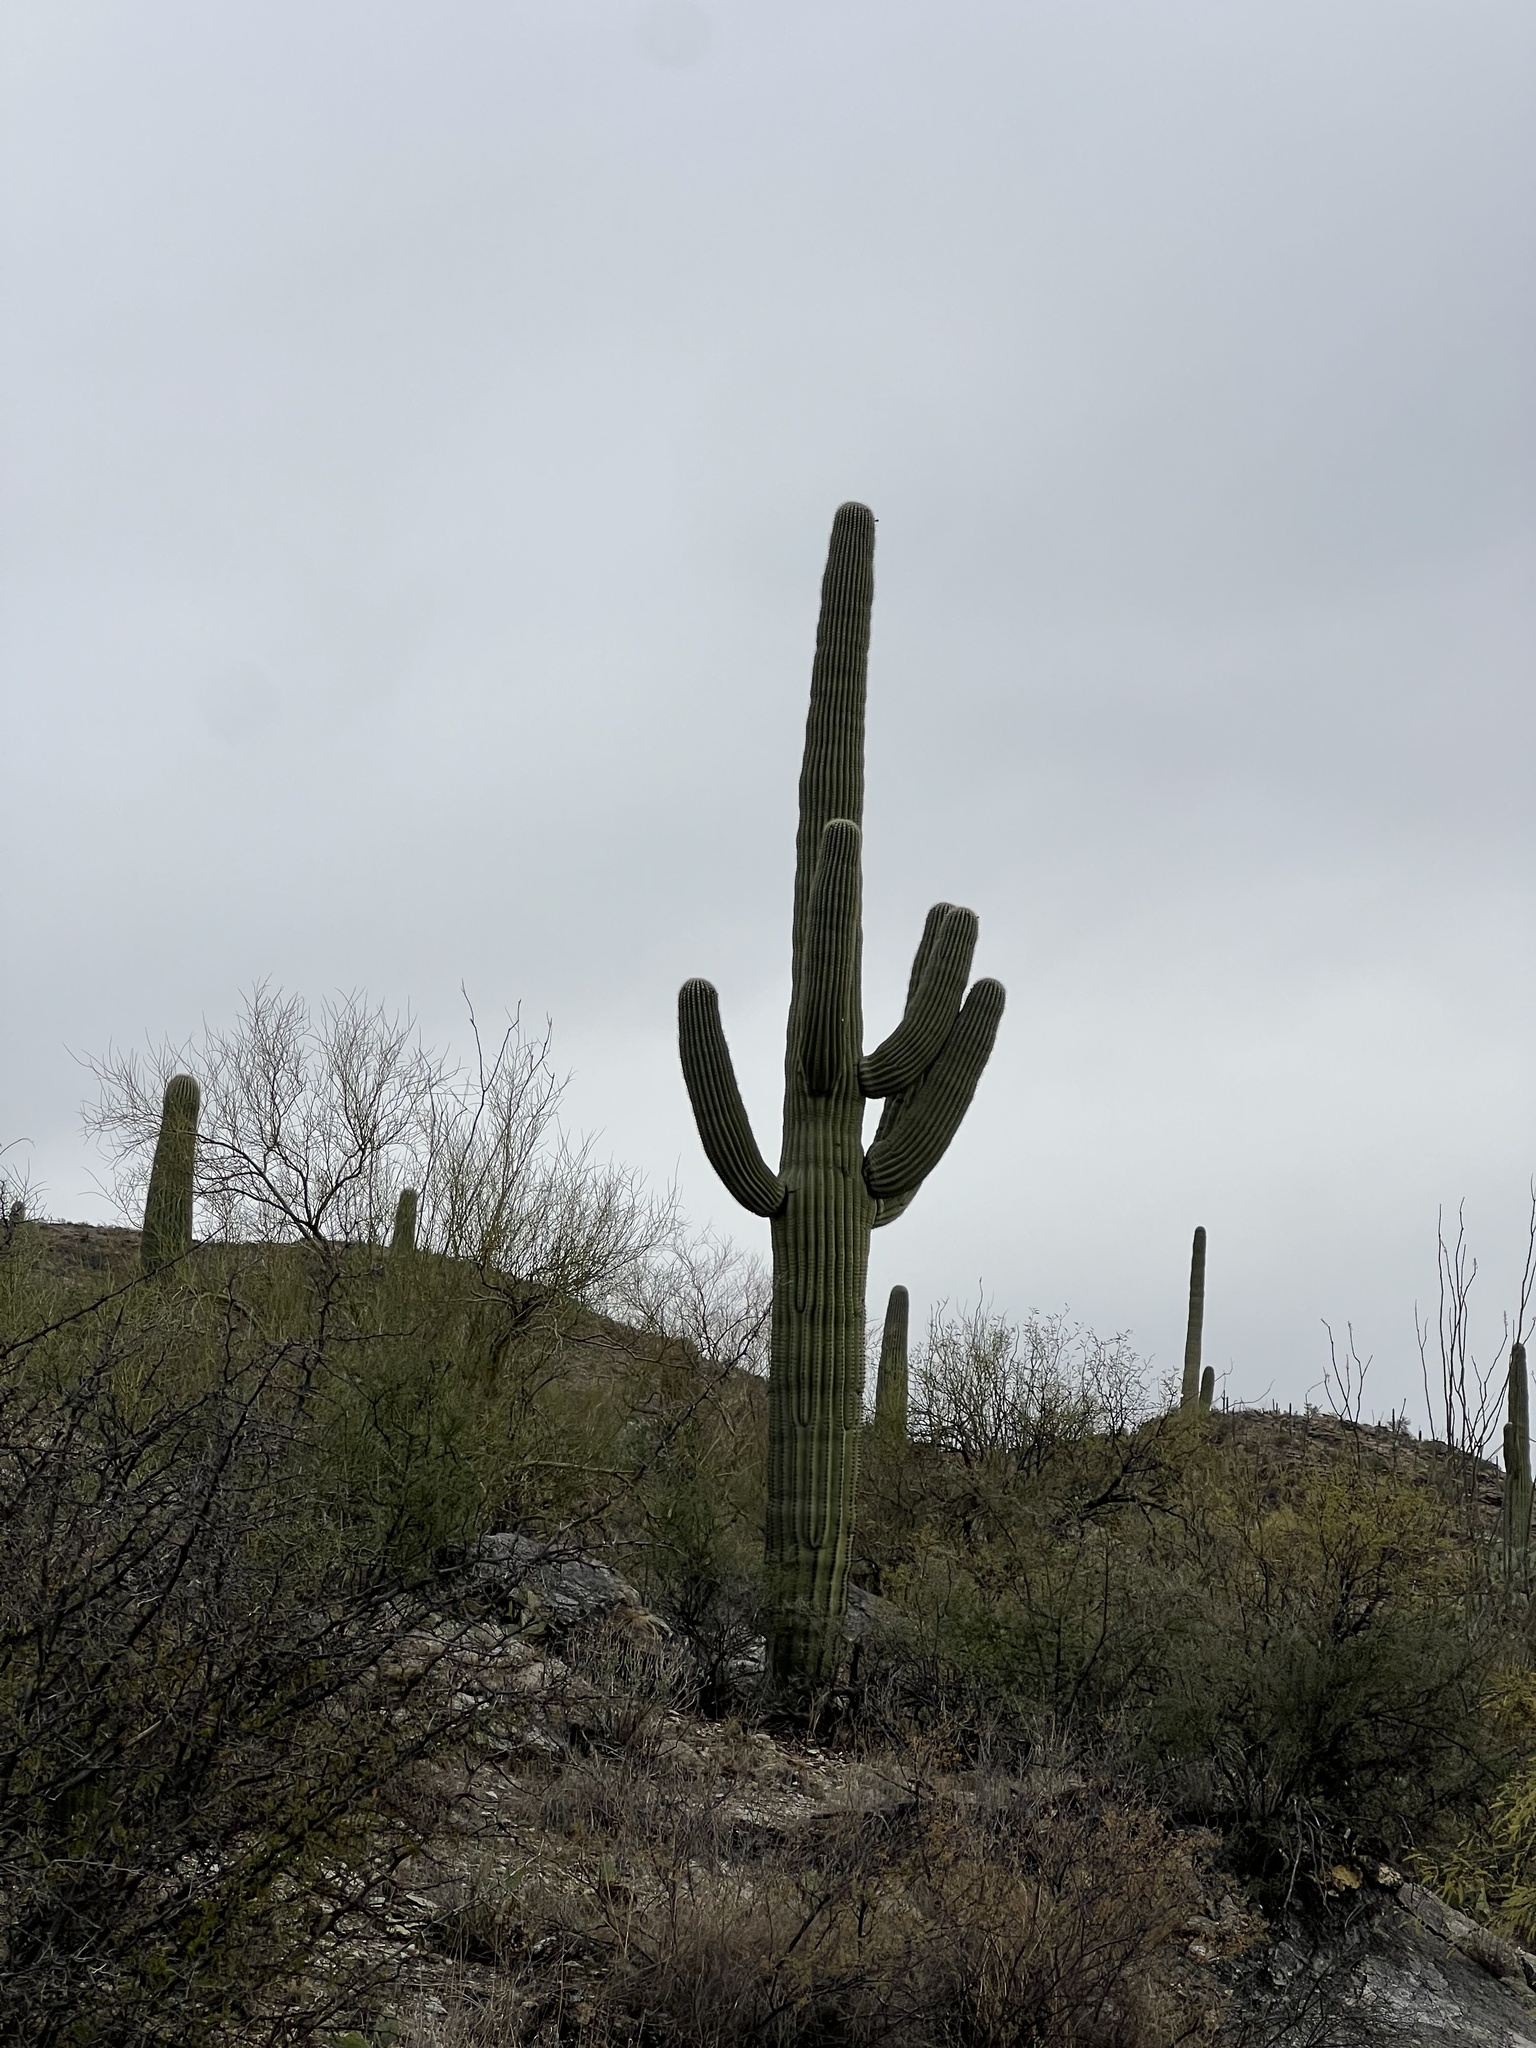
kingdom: Plantae
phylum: Tracheophyta
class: Magnoliopsida
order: Caryophyllales
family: Cactaceae
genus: Carnegiea
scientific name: Carnegiea gigantea
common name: Saguaro
